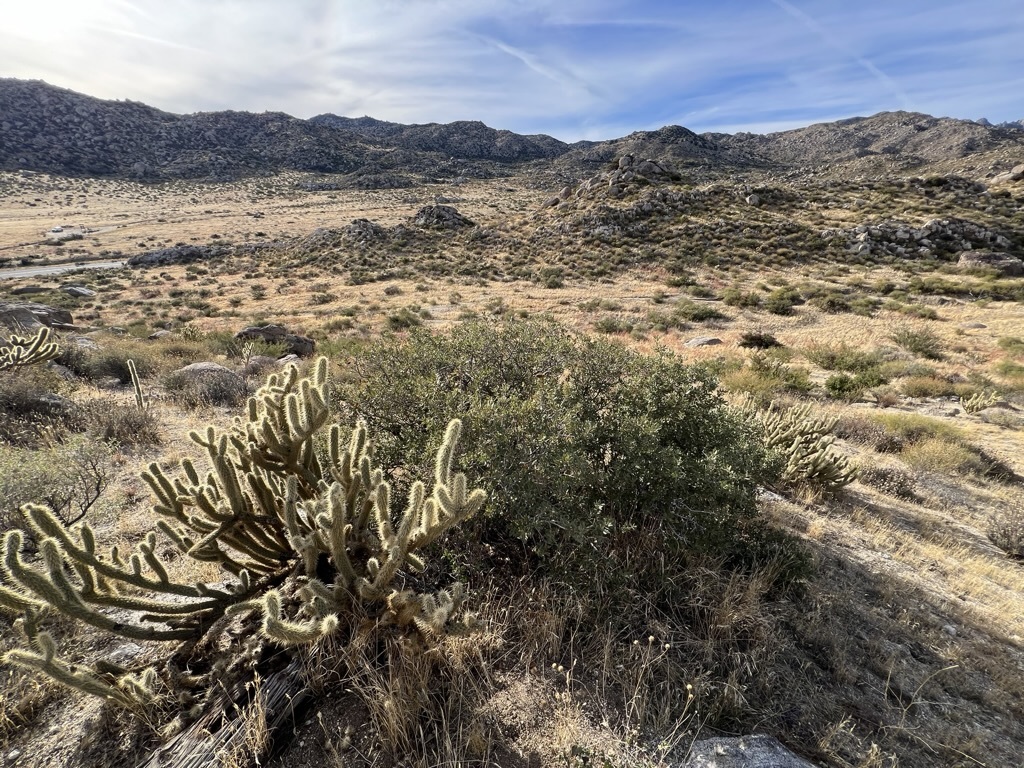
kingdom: Plantae
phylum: Tracheophyta
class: Magnoliopsida
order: Fagales
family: Fagaceae
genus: Quercus
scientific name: Quercus cornelius-mulleri
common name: Muller oak
